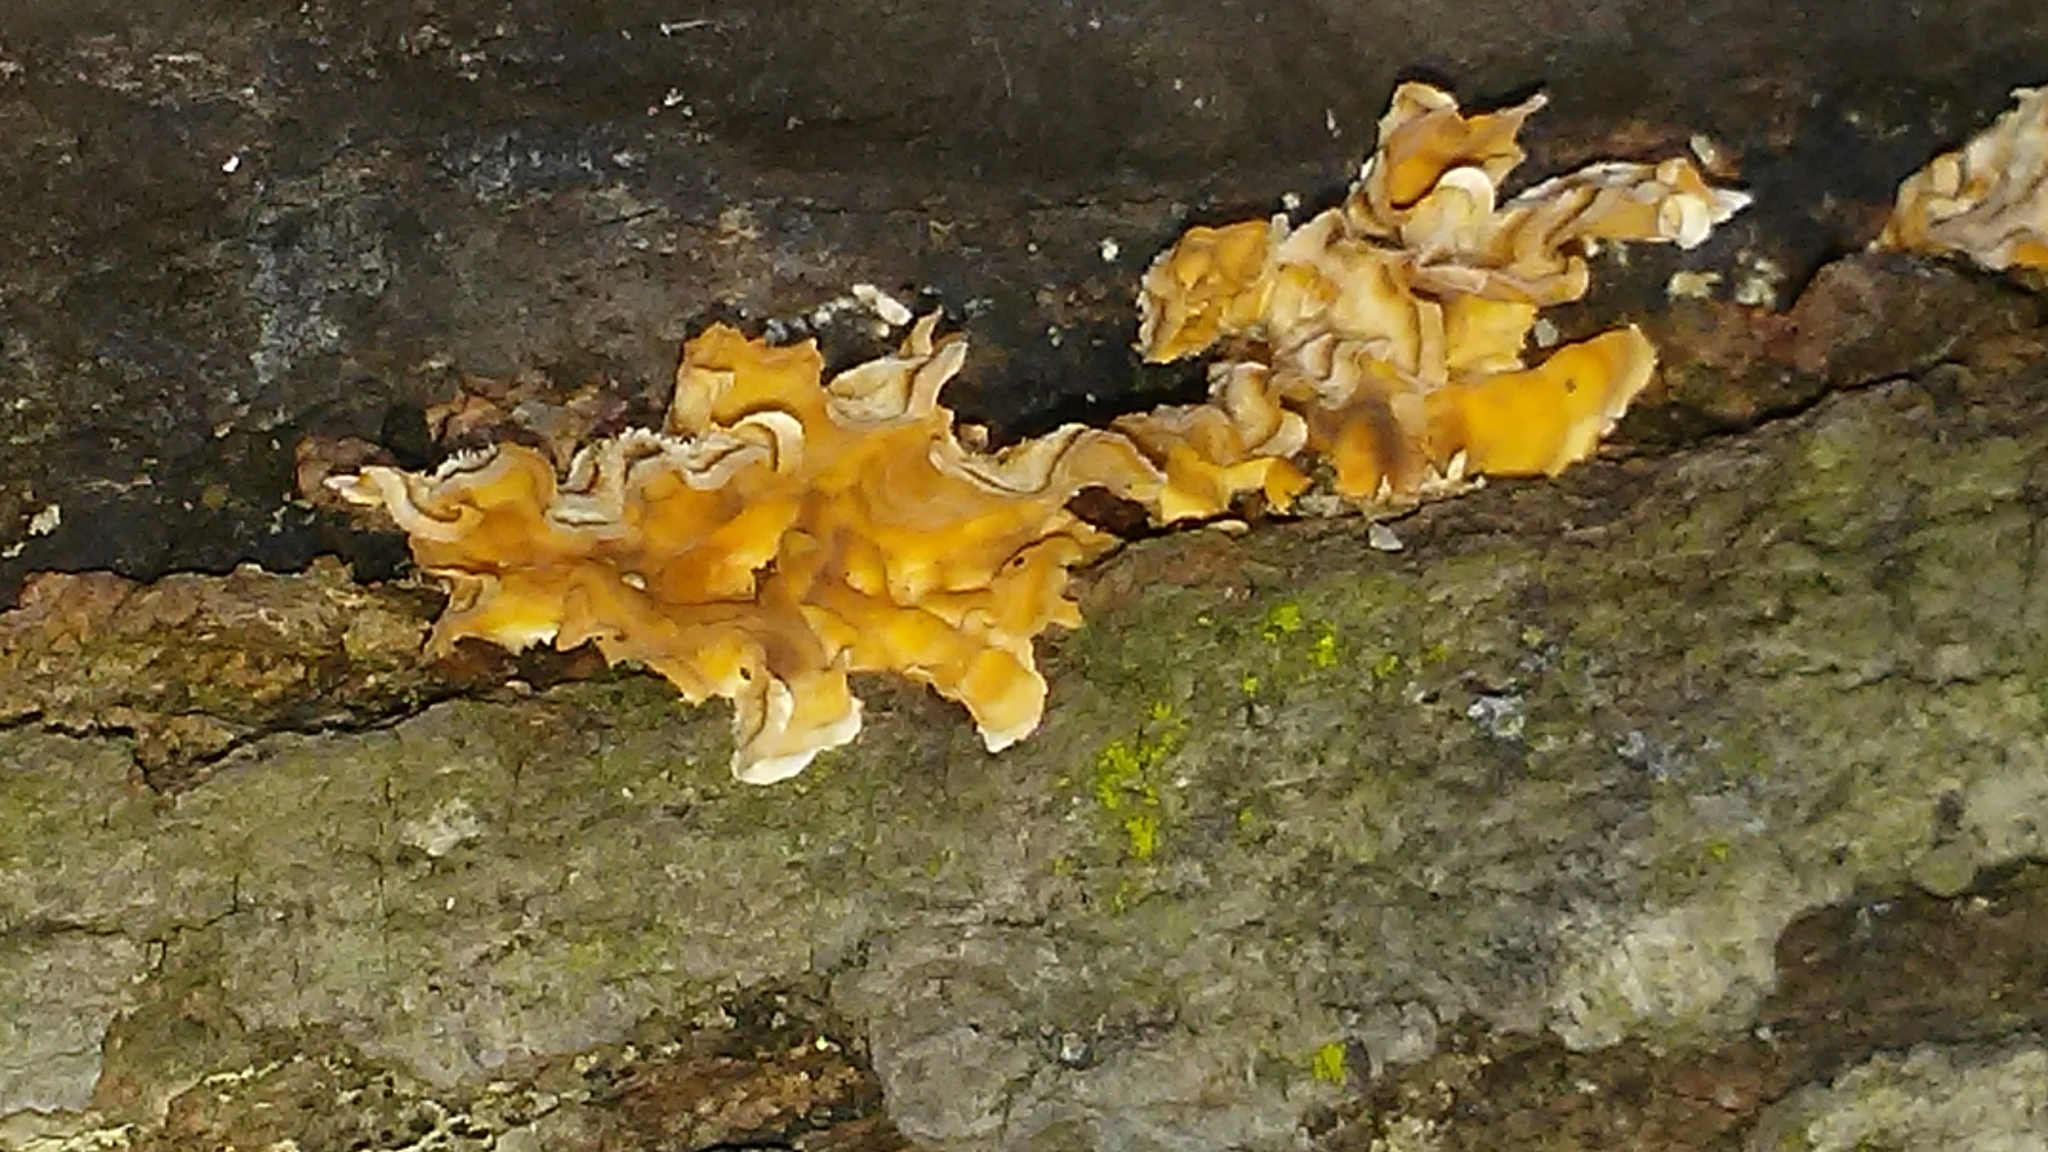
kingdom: Fungi
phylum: Basidiomycota
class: Agaricomycetes
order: Russulales
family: Stereaceae
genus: Stereum
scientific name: Stereum gausapatum
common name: Bleeding oak crust
